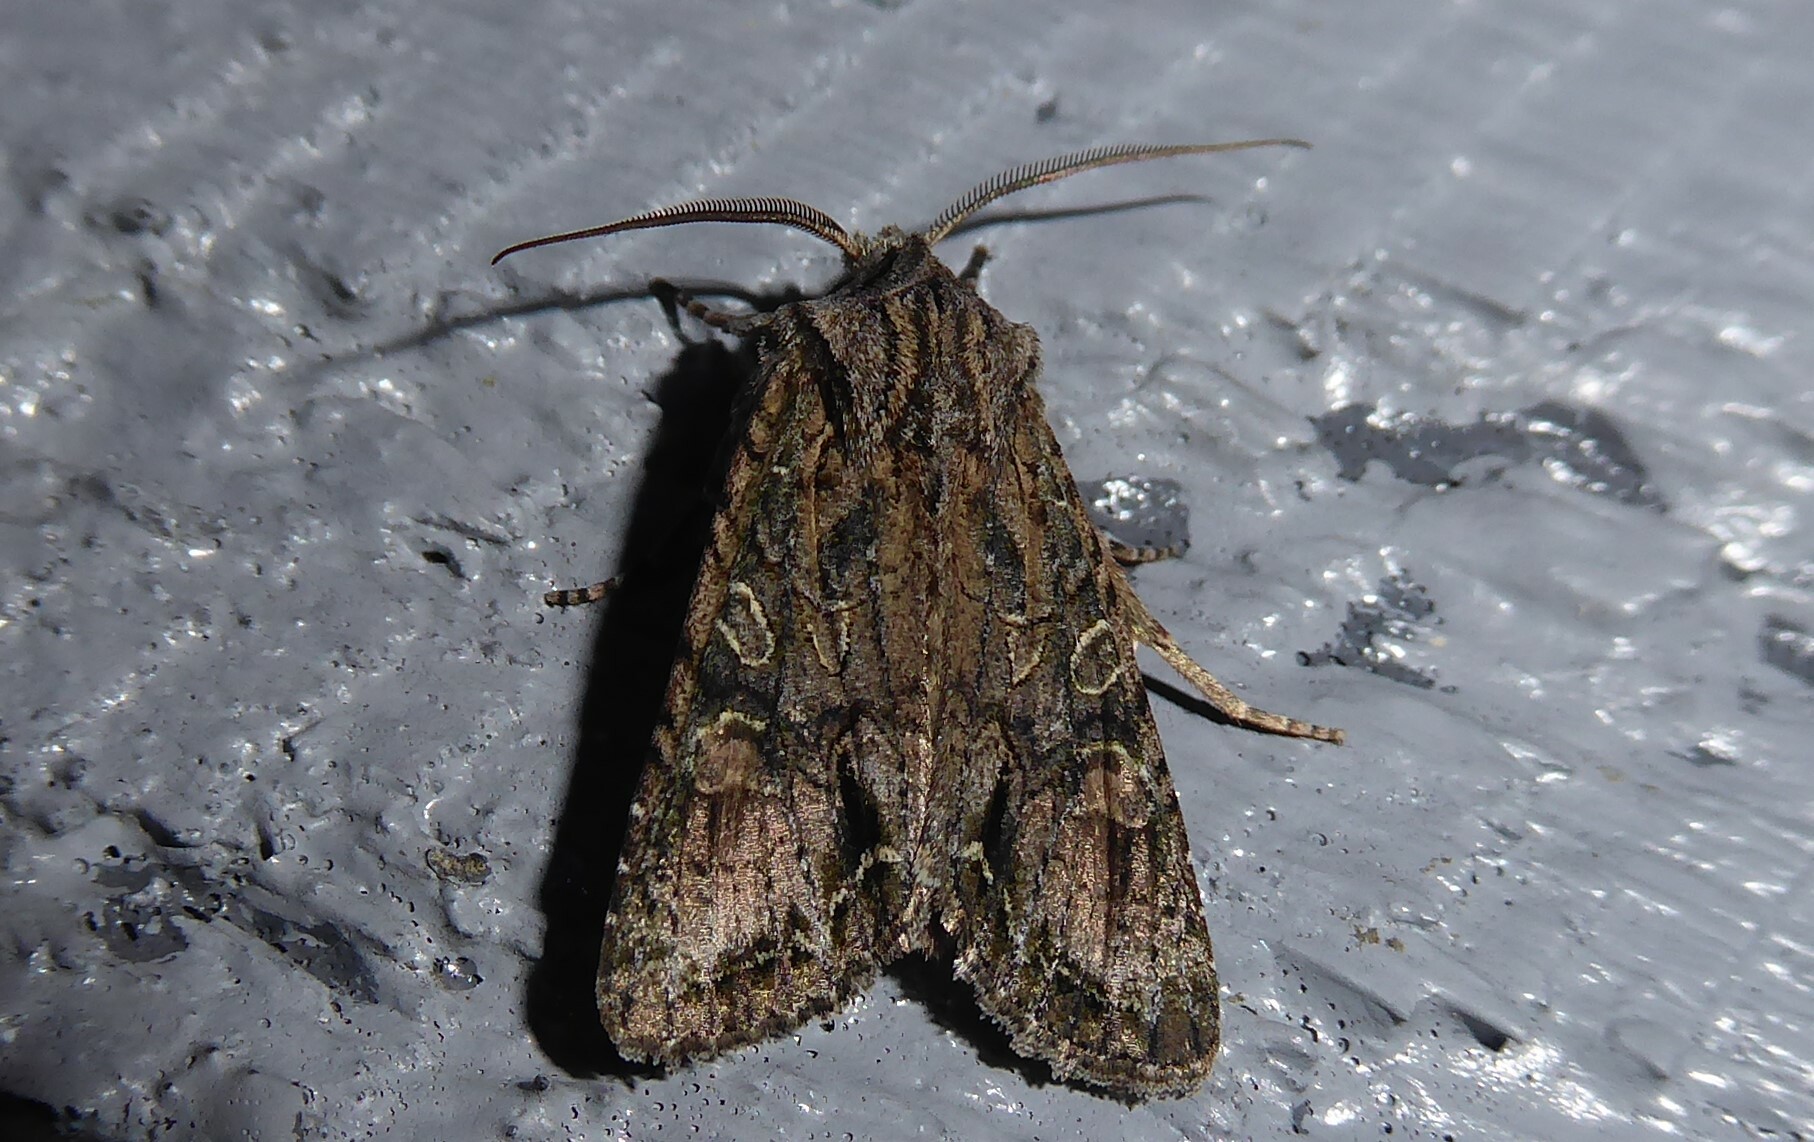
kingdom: Animalia
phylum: Arthropoda
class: Insecta
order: Lepidoptera
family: Noctuidae
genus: Ichneutica
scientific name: Ichneutica mutans
